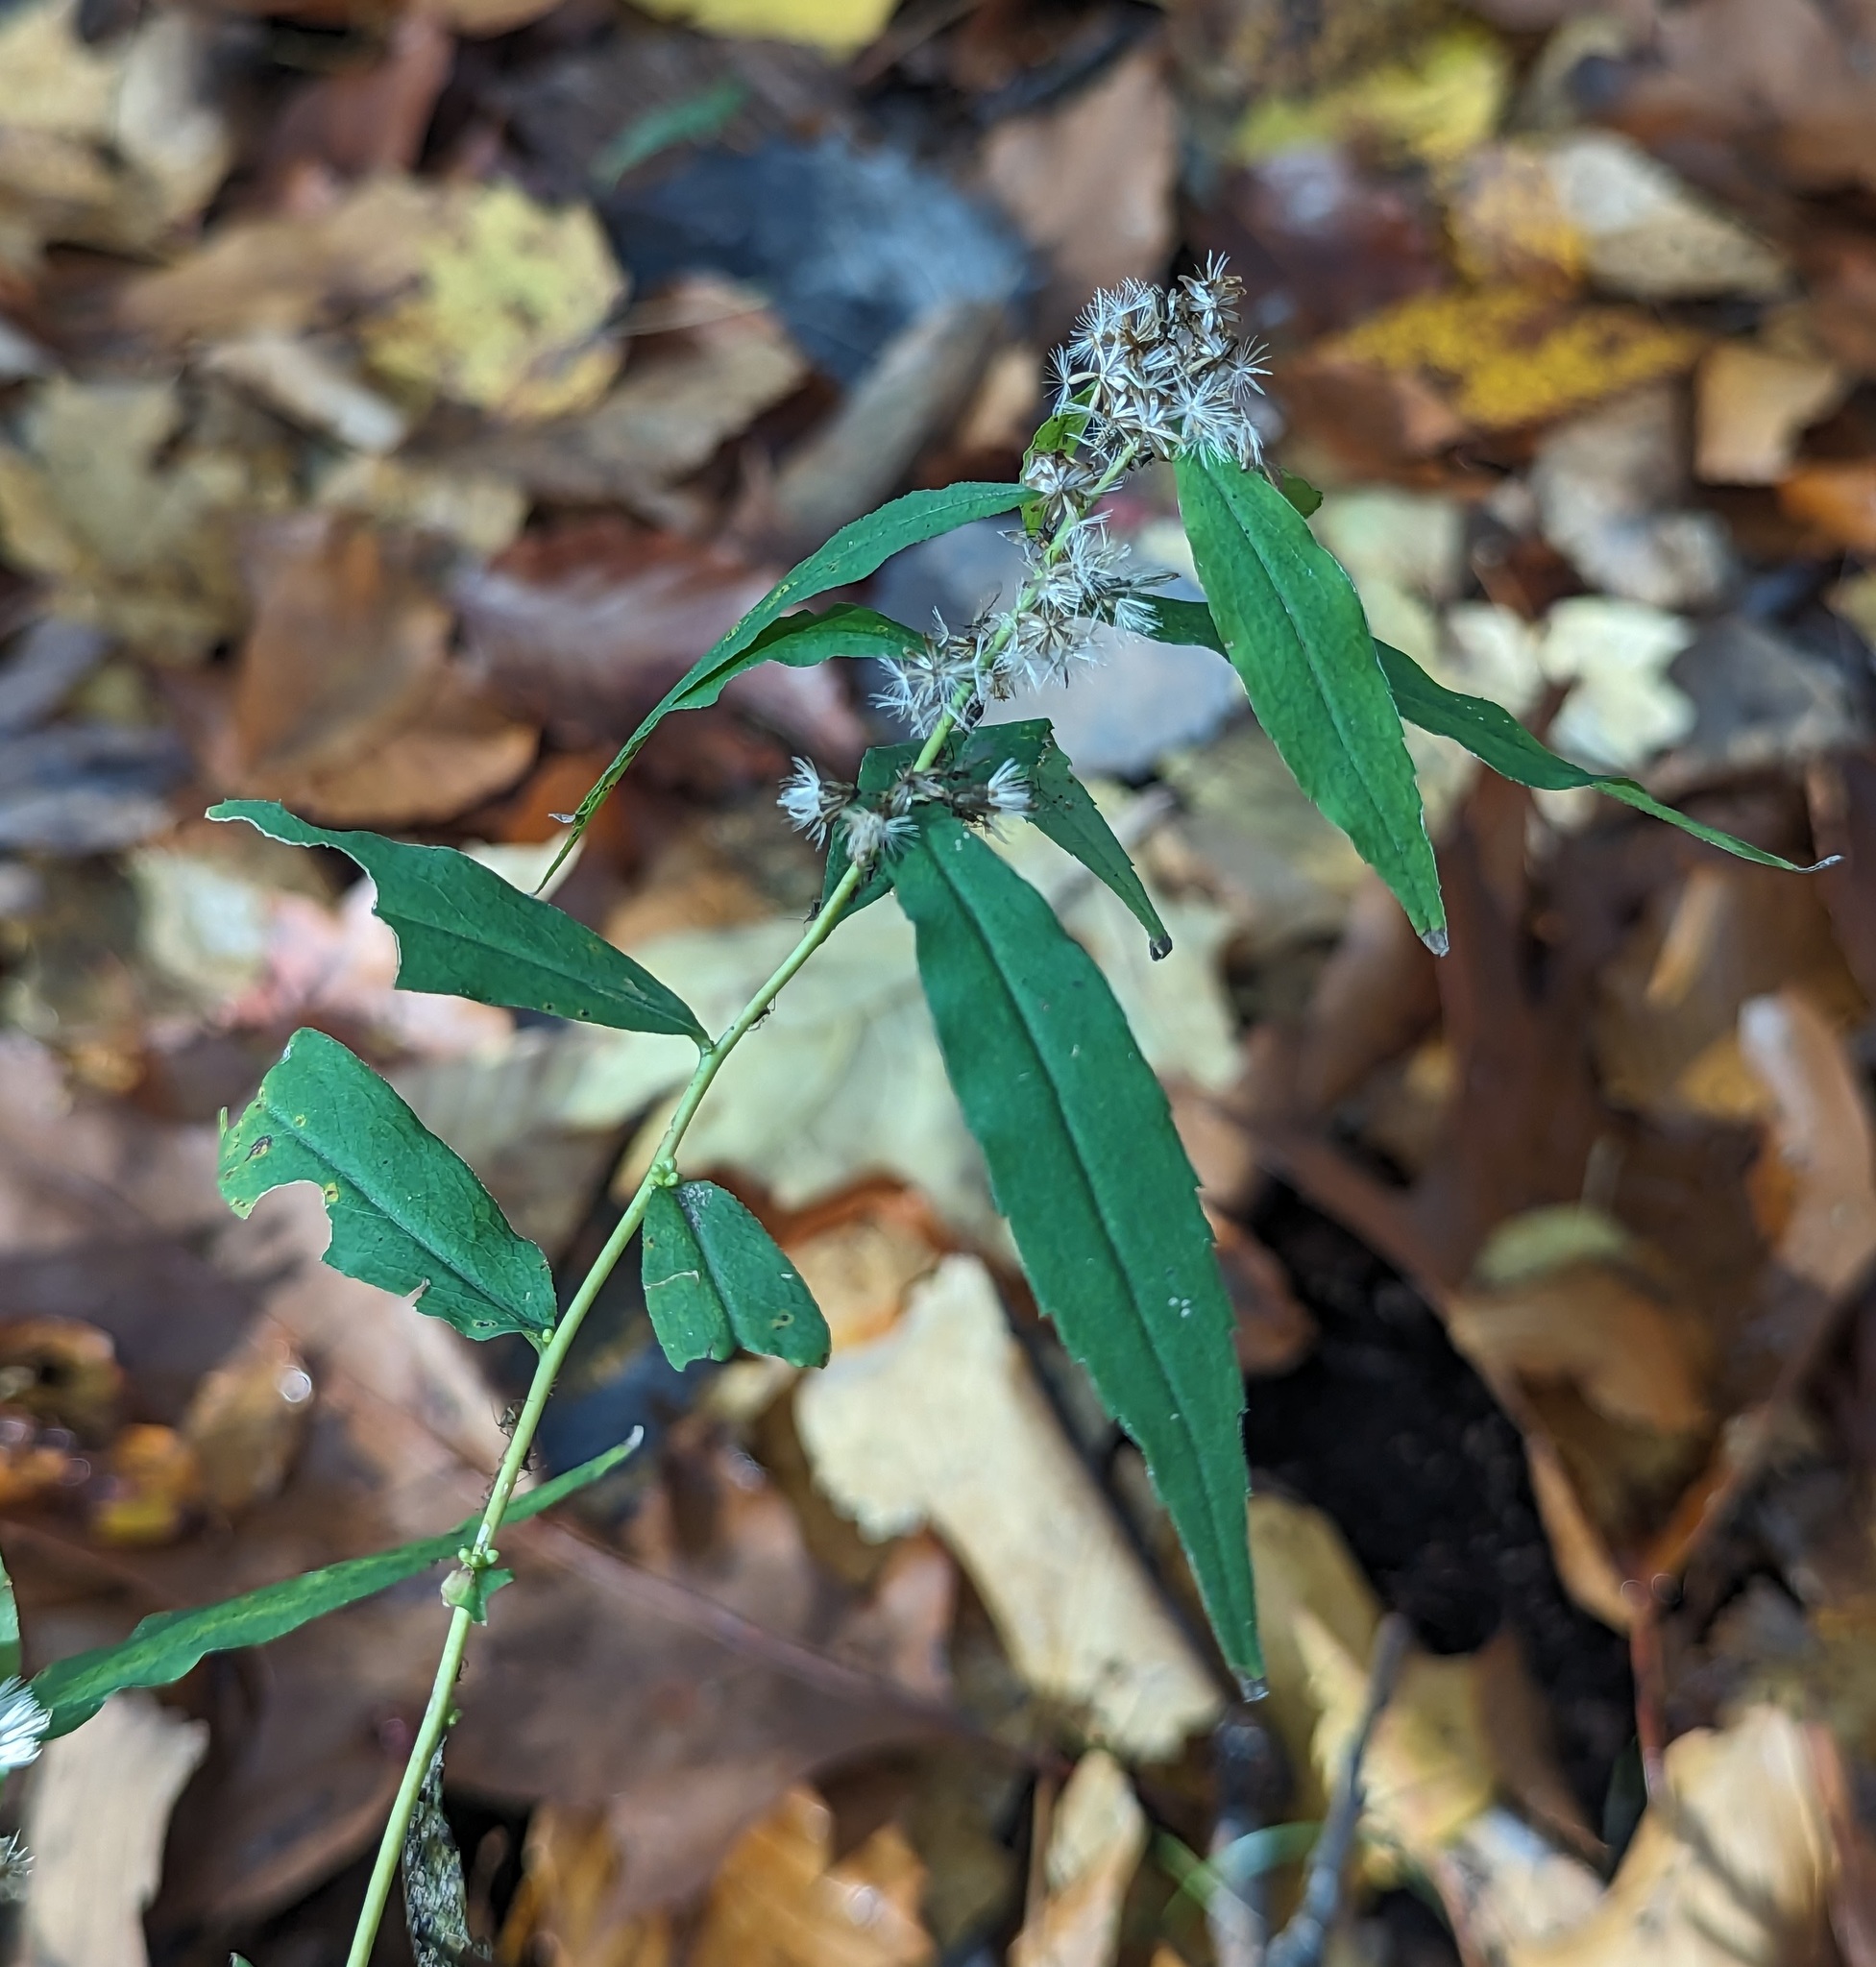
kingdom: Plantae
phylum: Tracheophyta
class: Magnoliopsida
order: Asterales
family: Asteraceae
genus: Solidago
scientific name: Solidago caesia
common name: Woodland goldenrod
